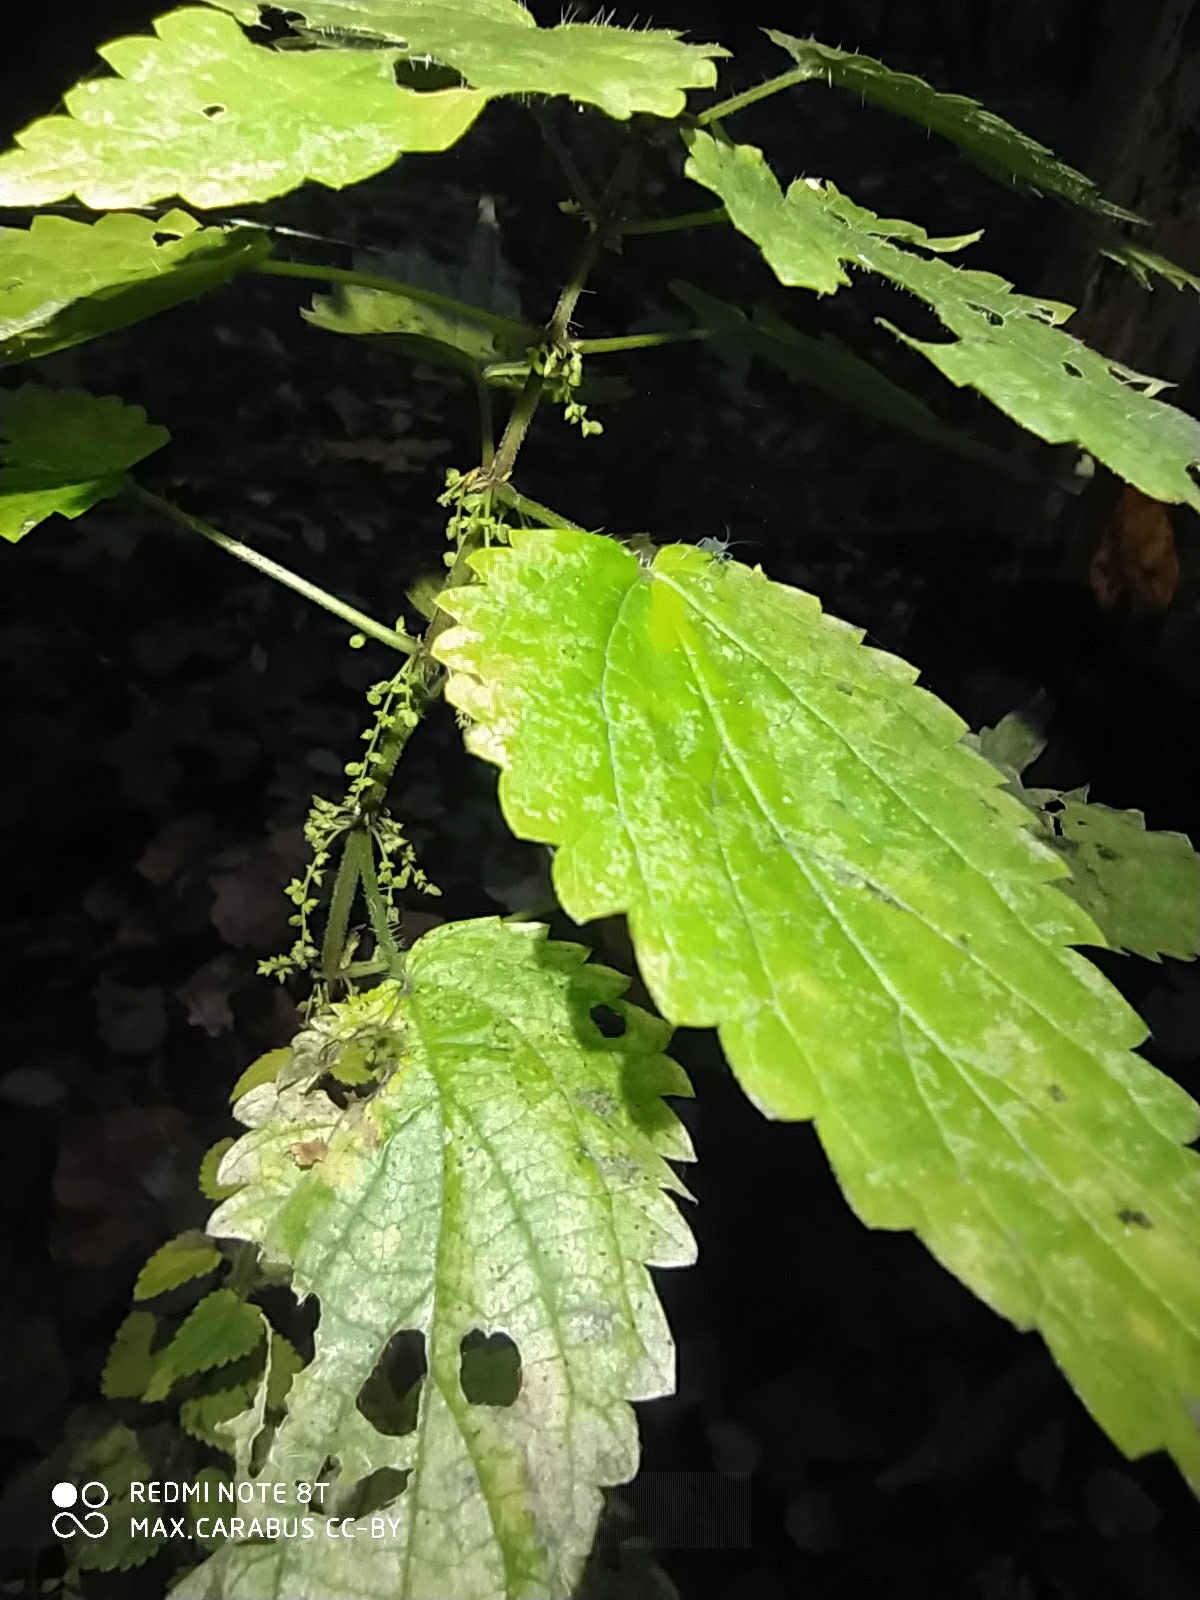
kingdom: Plantae
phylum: Tracheophyta
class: Magnoliopsida
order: Rosales
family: Urticaceae
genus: Urtica
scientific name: Urtica dioica
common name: Common nettle
